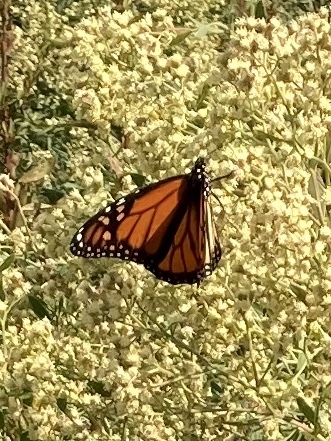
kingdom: Animalia
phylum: Arthropoda
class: Insecta
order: Lepidoptera
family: Nymphalidae
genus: Danaus
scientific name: Danaus plexippus
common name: Monarch
